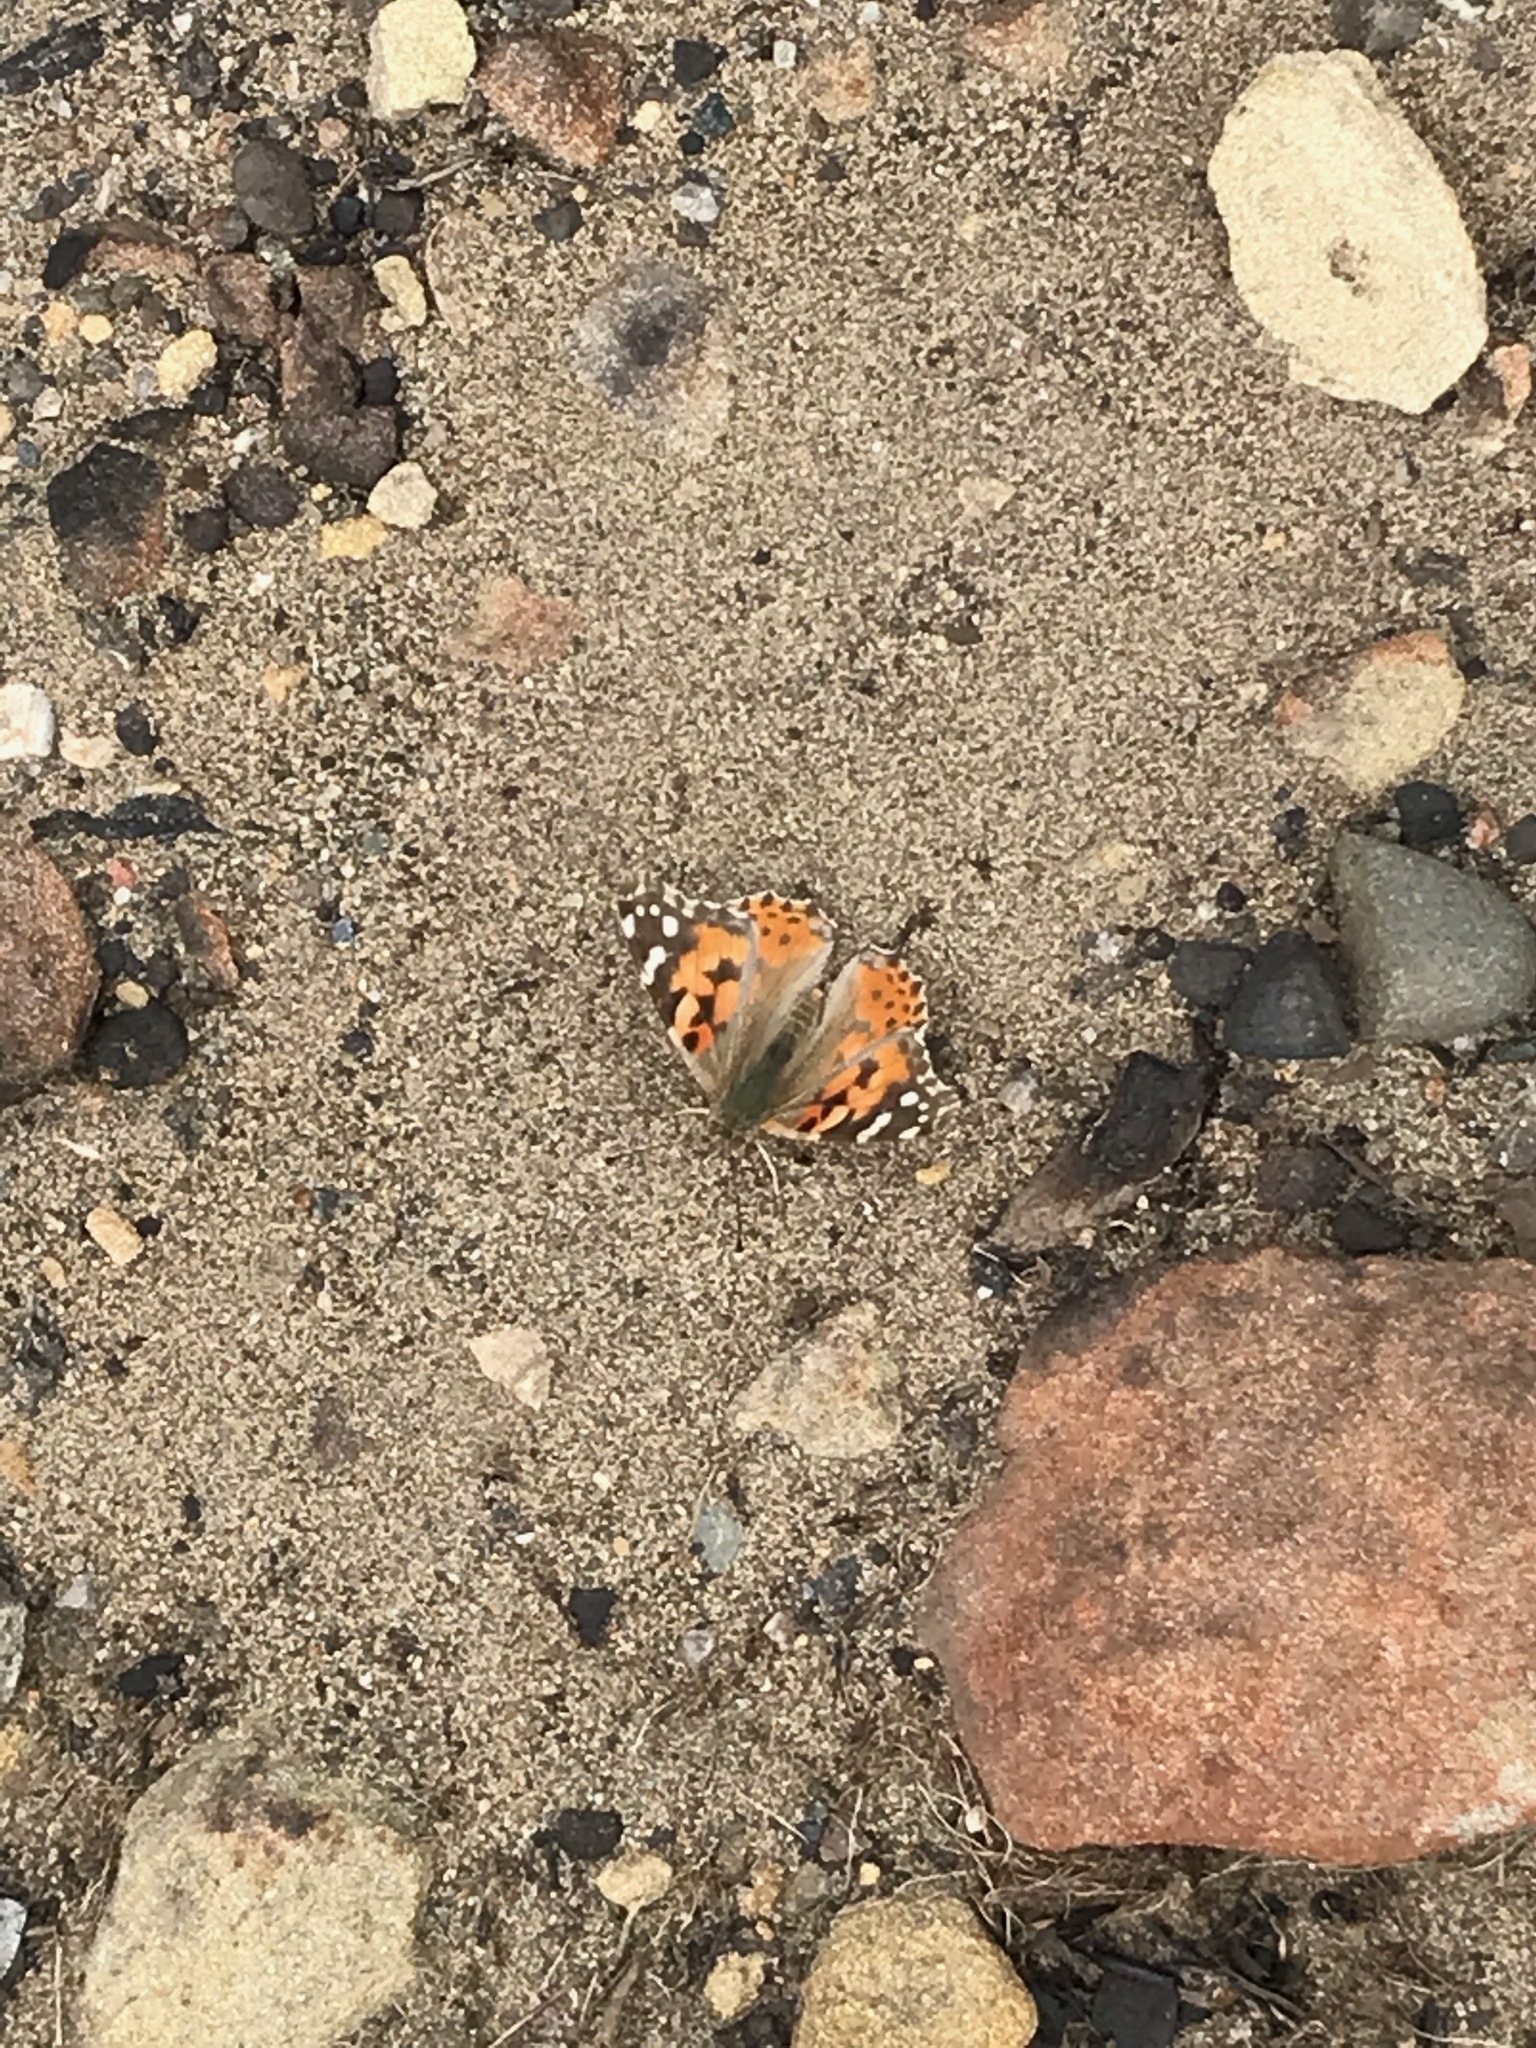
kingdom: Animalia
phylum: Arthropoda
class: Insecta
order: Lepidoptera
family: Nymphalidae
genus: Vanessa
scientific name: Vanessa cardui
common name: Painted lady
